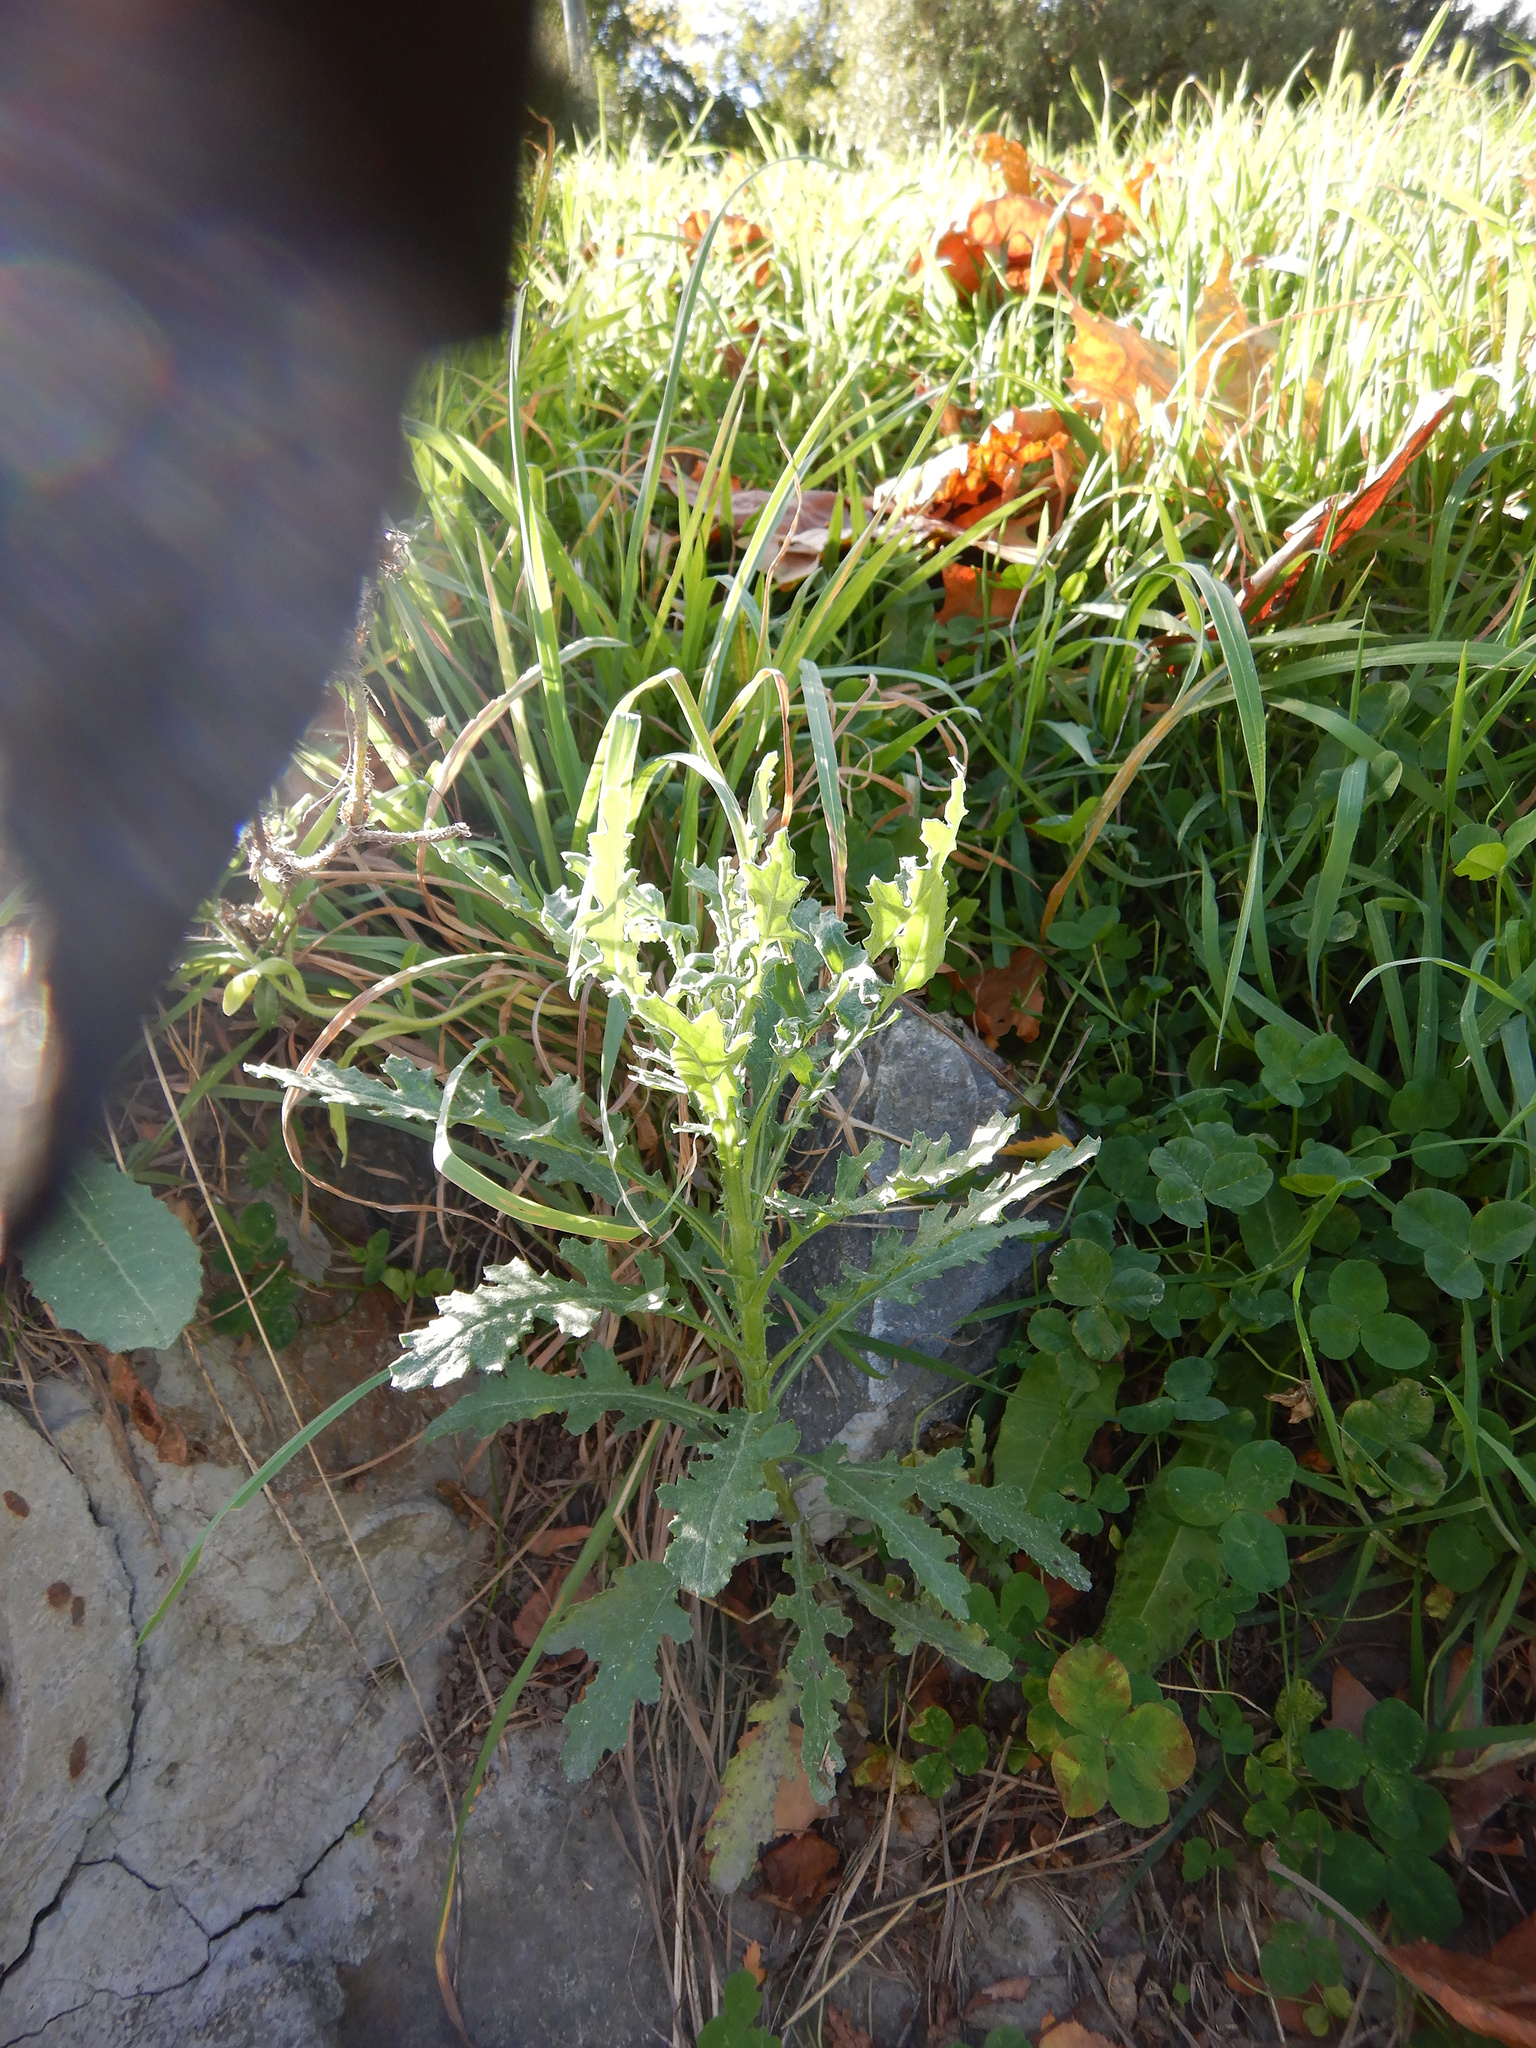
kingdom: Plantae
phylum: Tracheophyta
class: Magnoliopsida
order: Asterales
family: Asteraceae
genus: Senecio
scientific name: Senecio glomeratus
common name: Cutleaf burnweed
